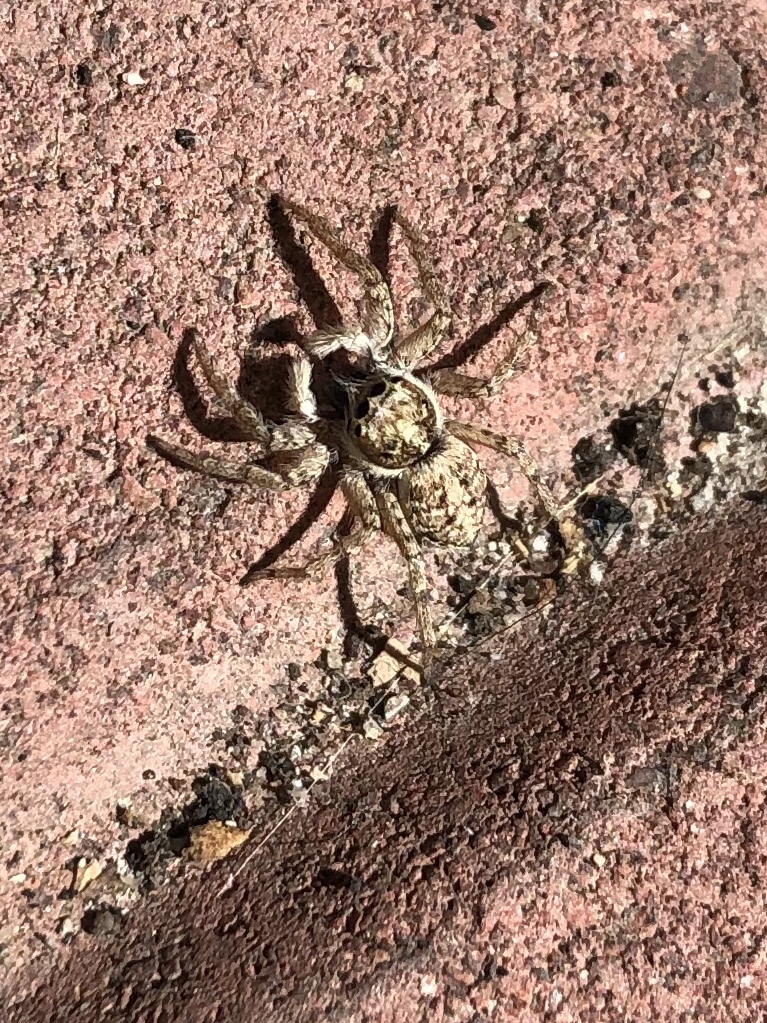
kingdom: Animalia
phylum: Arthropoda
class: Arachnida
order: Araneae
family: Salticidae
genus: Menemerus
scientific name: Menemerus semilimbatus
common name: Jumping spider
